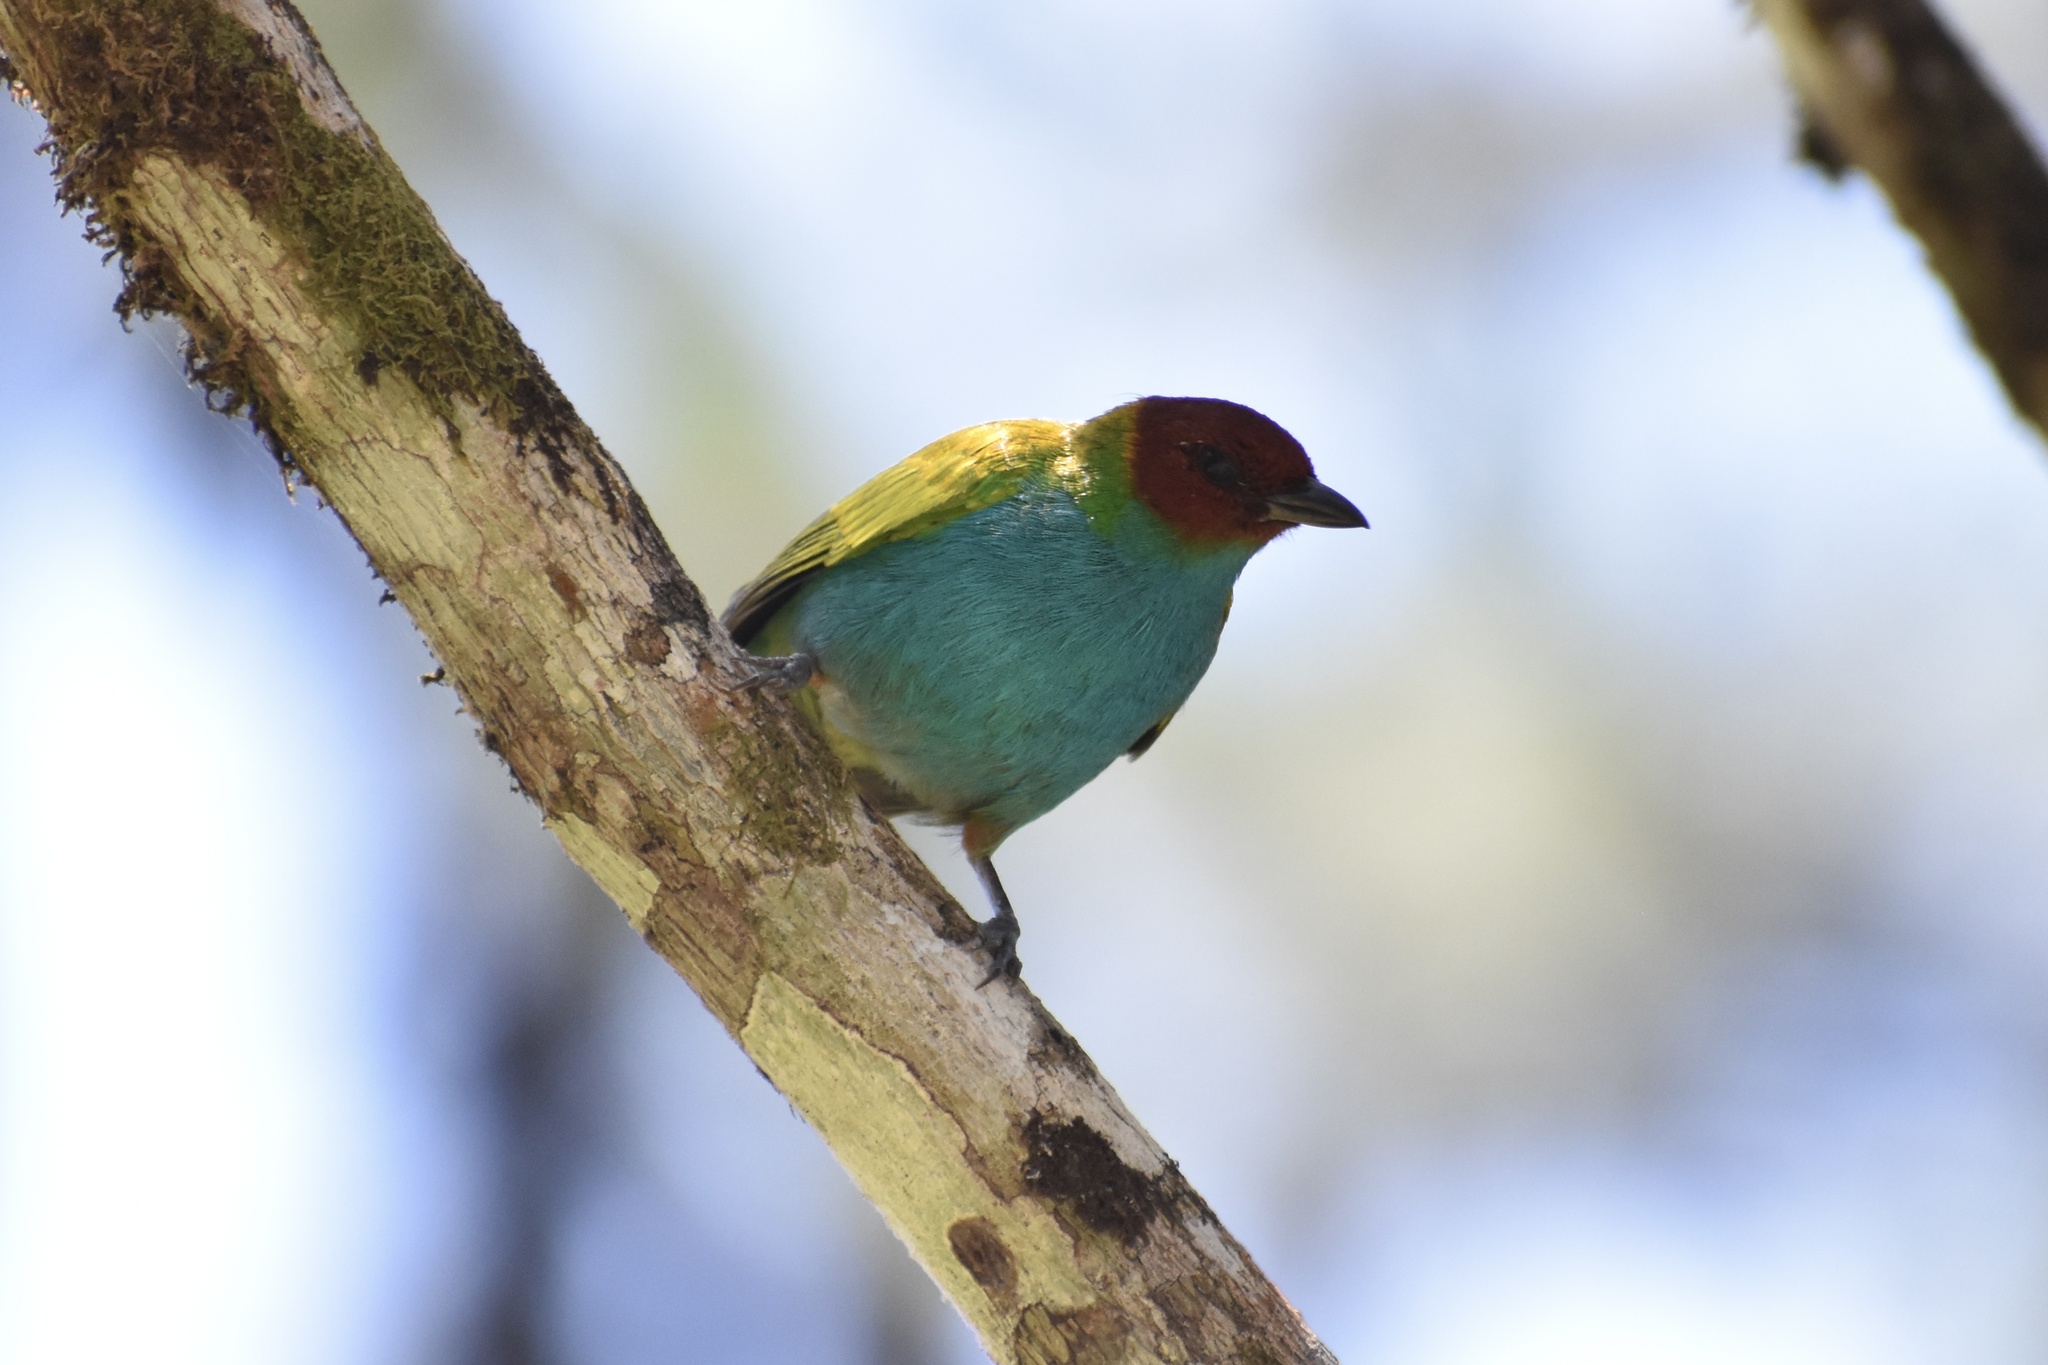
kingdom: Animalia
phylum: Chordata
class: Aves
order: Passeriformes
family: Thraupidae
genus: Tangara
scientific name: Tangara gyrola
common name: Bay-headed tanager
